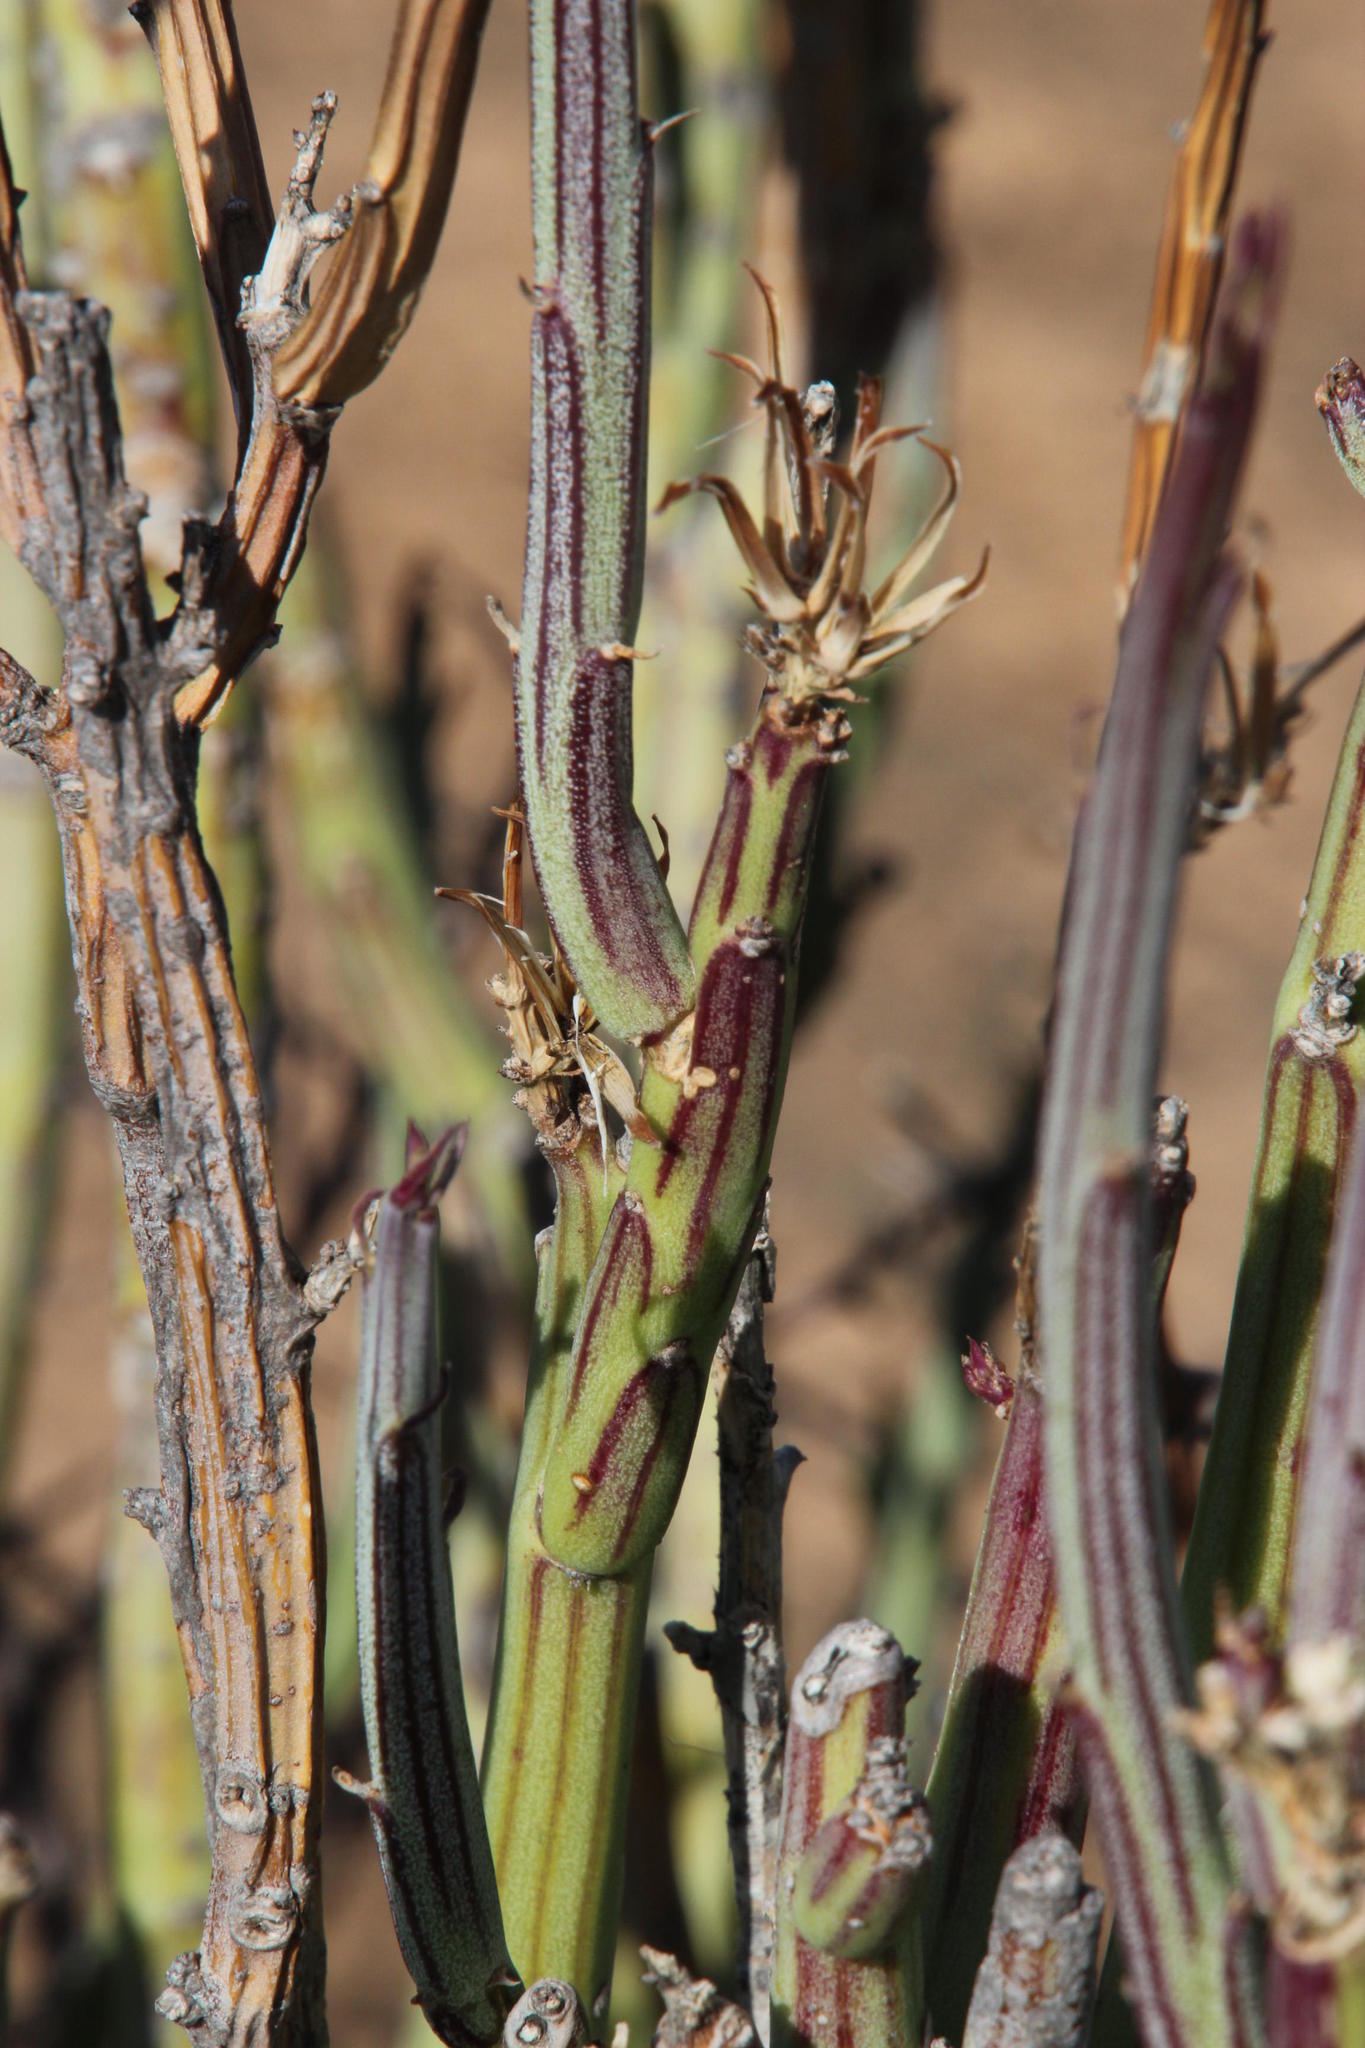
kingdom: Plantae
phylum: Tracheophyta
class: Magnoliopsida
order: Asterales
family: Asteraceae
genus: Curio
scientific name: Curio avasimontanus
